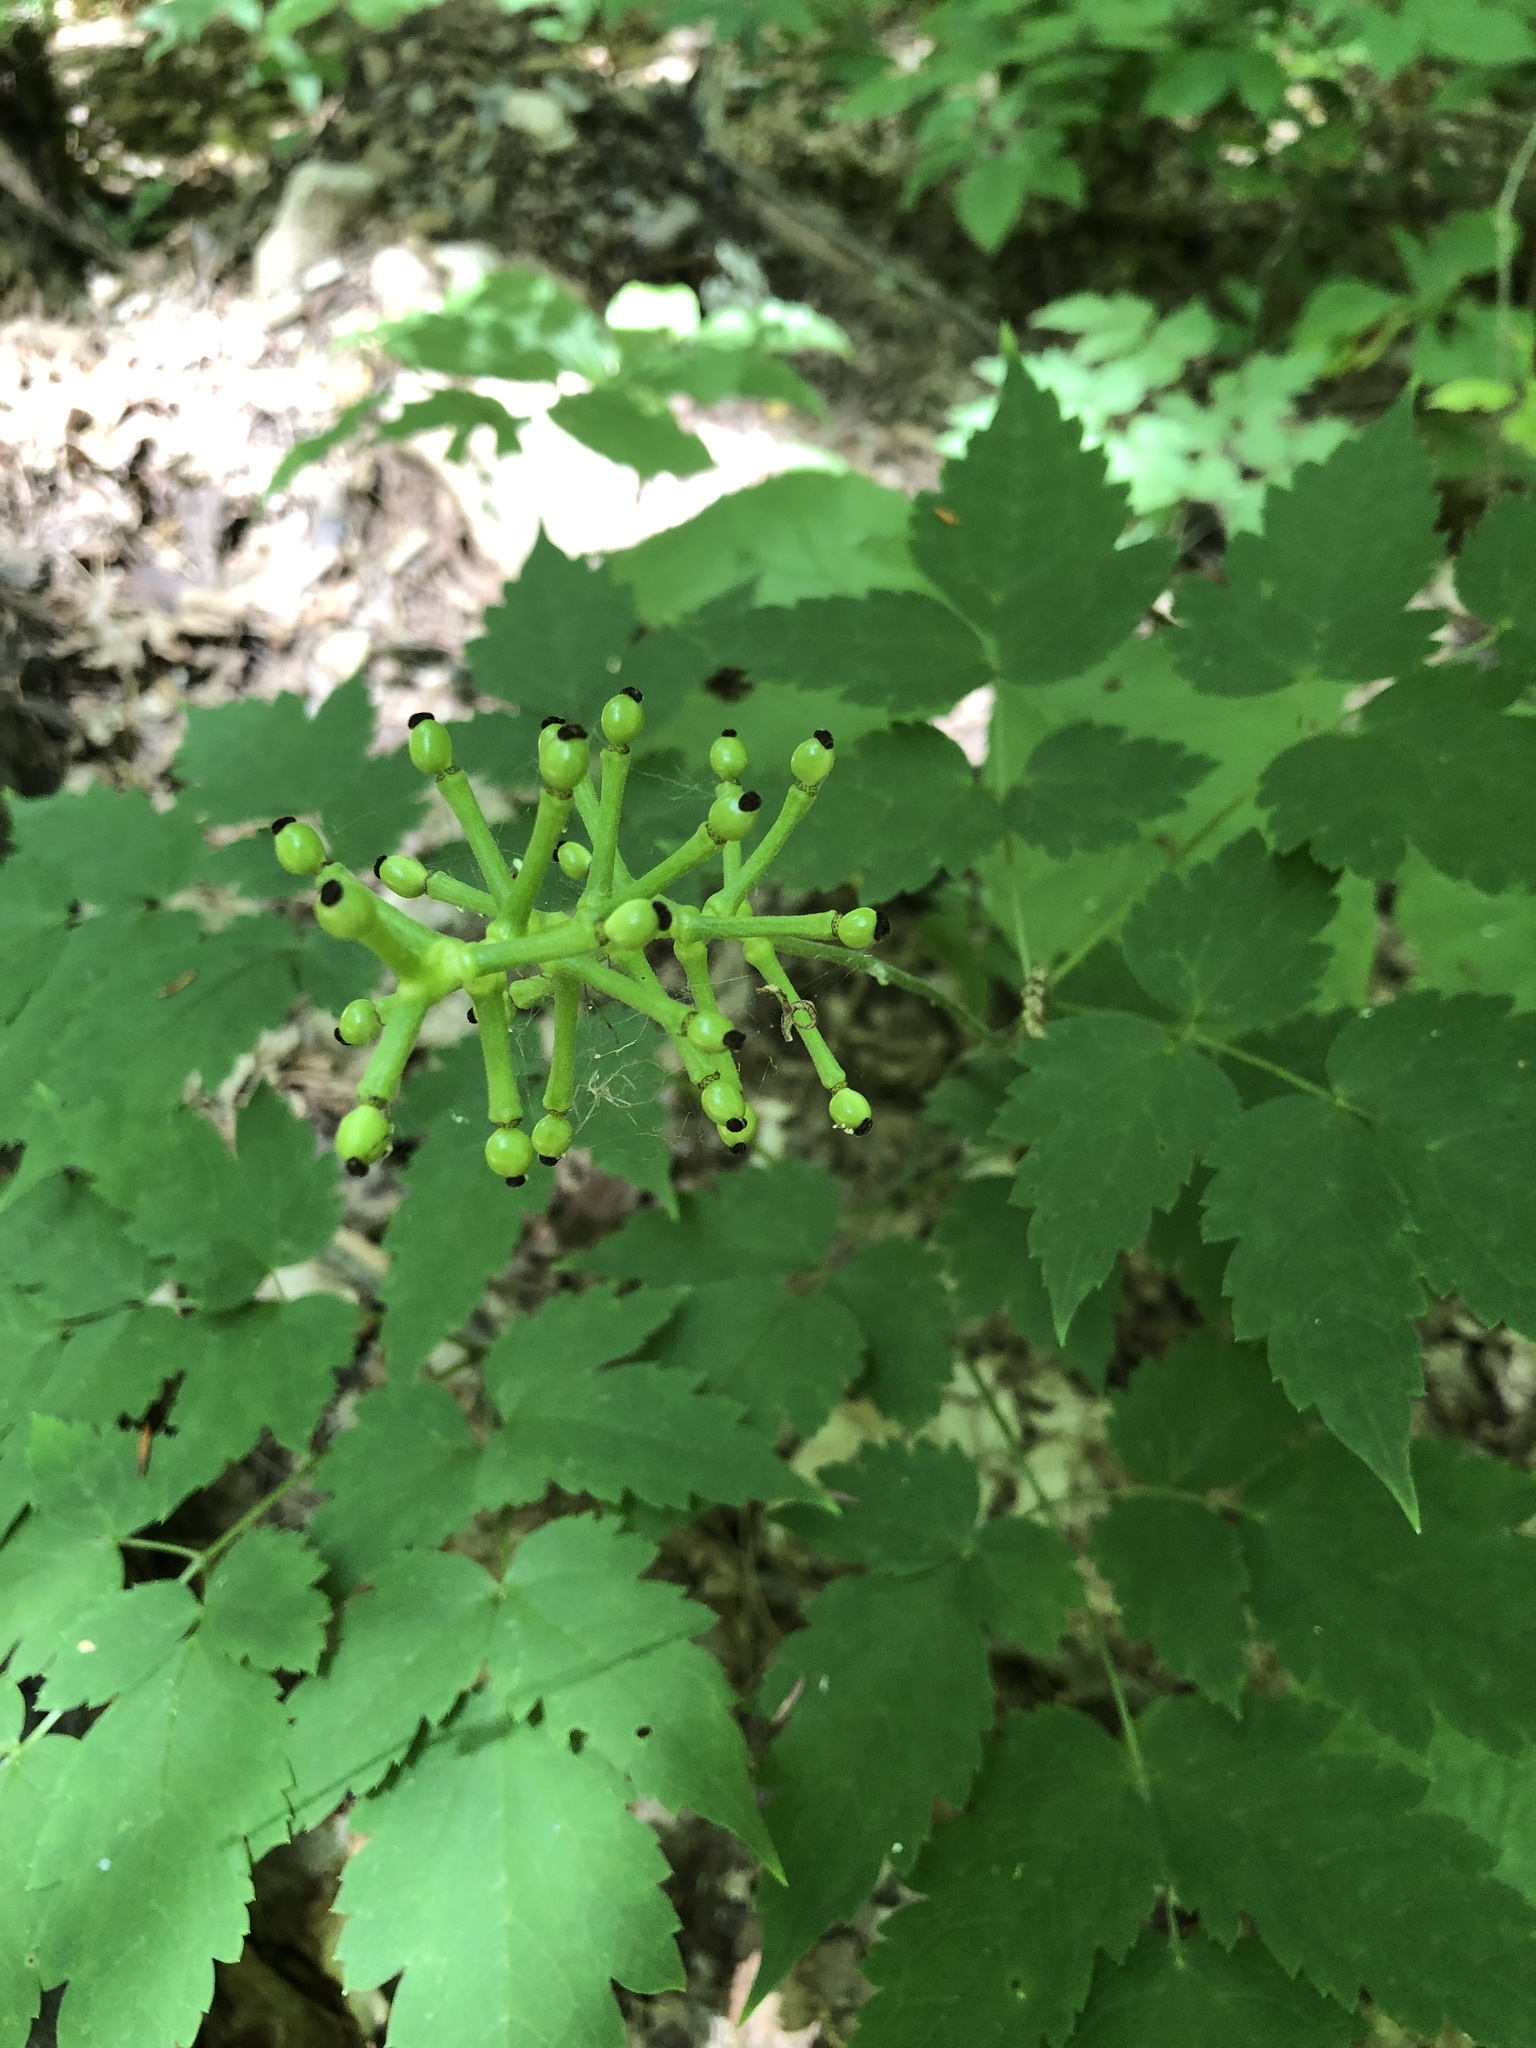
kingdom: Plantae
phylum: Tracheophyta
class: Magnoliopsida
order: Ranunculales
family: Ranunculaceae
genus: Actaea
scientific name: Actaea pachypoda
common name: Doll's-eyes
